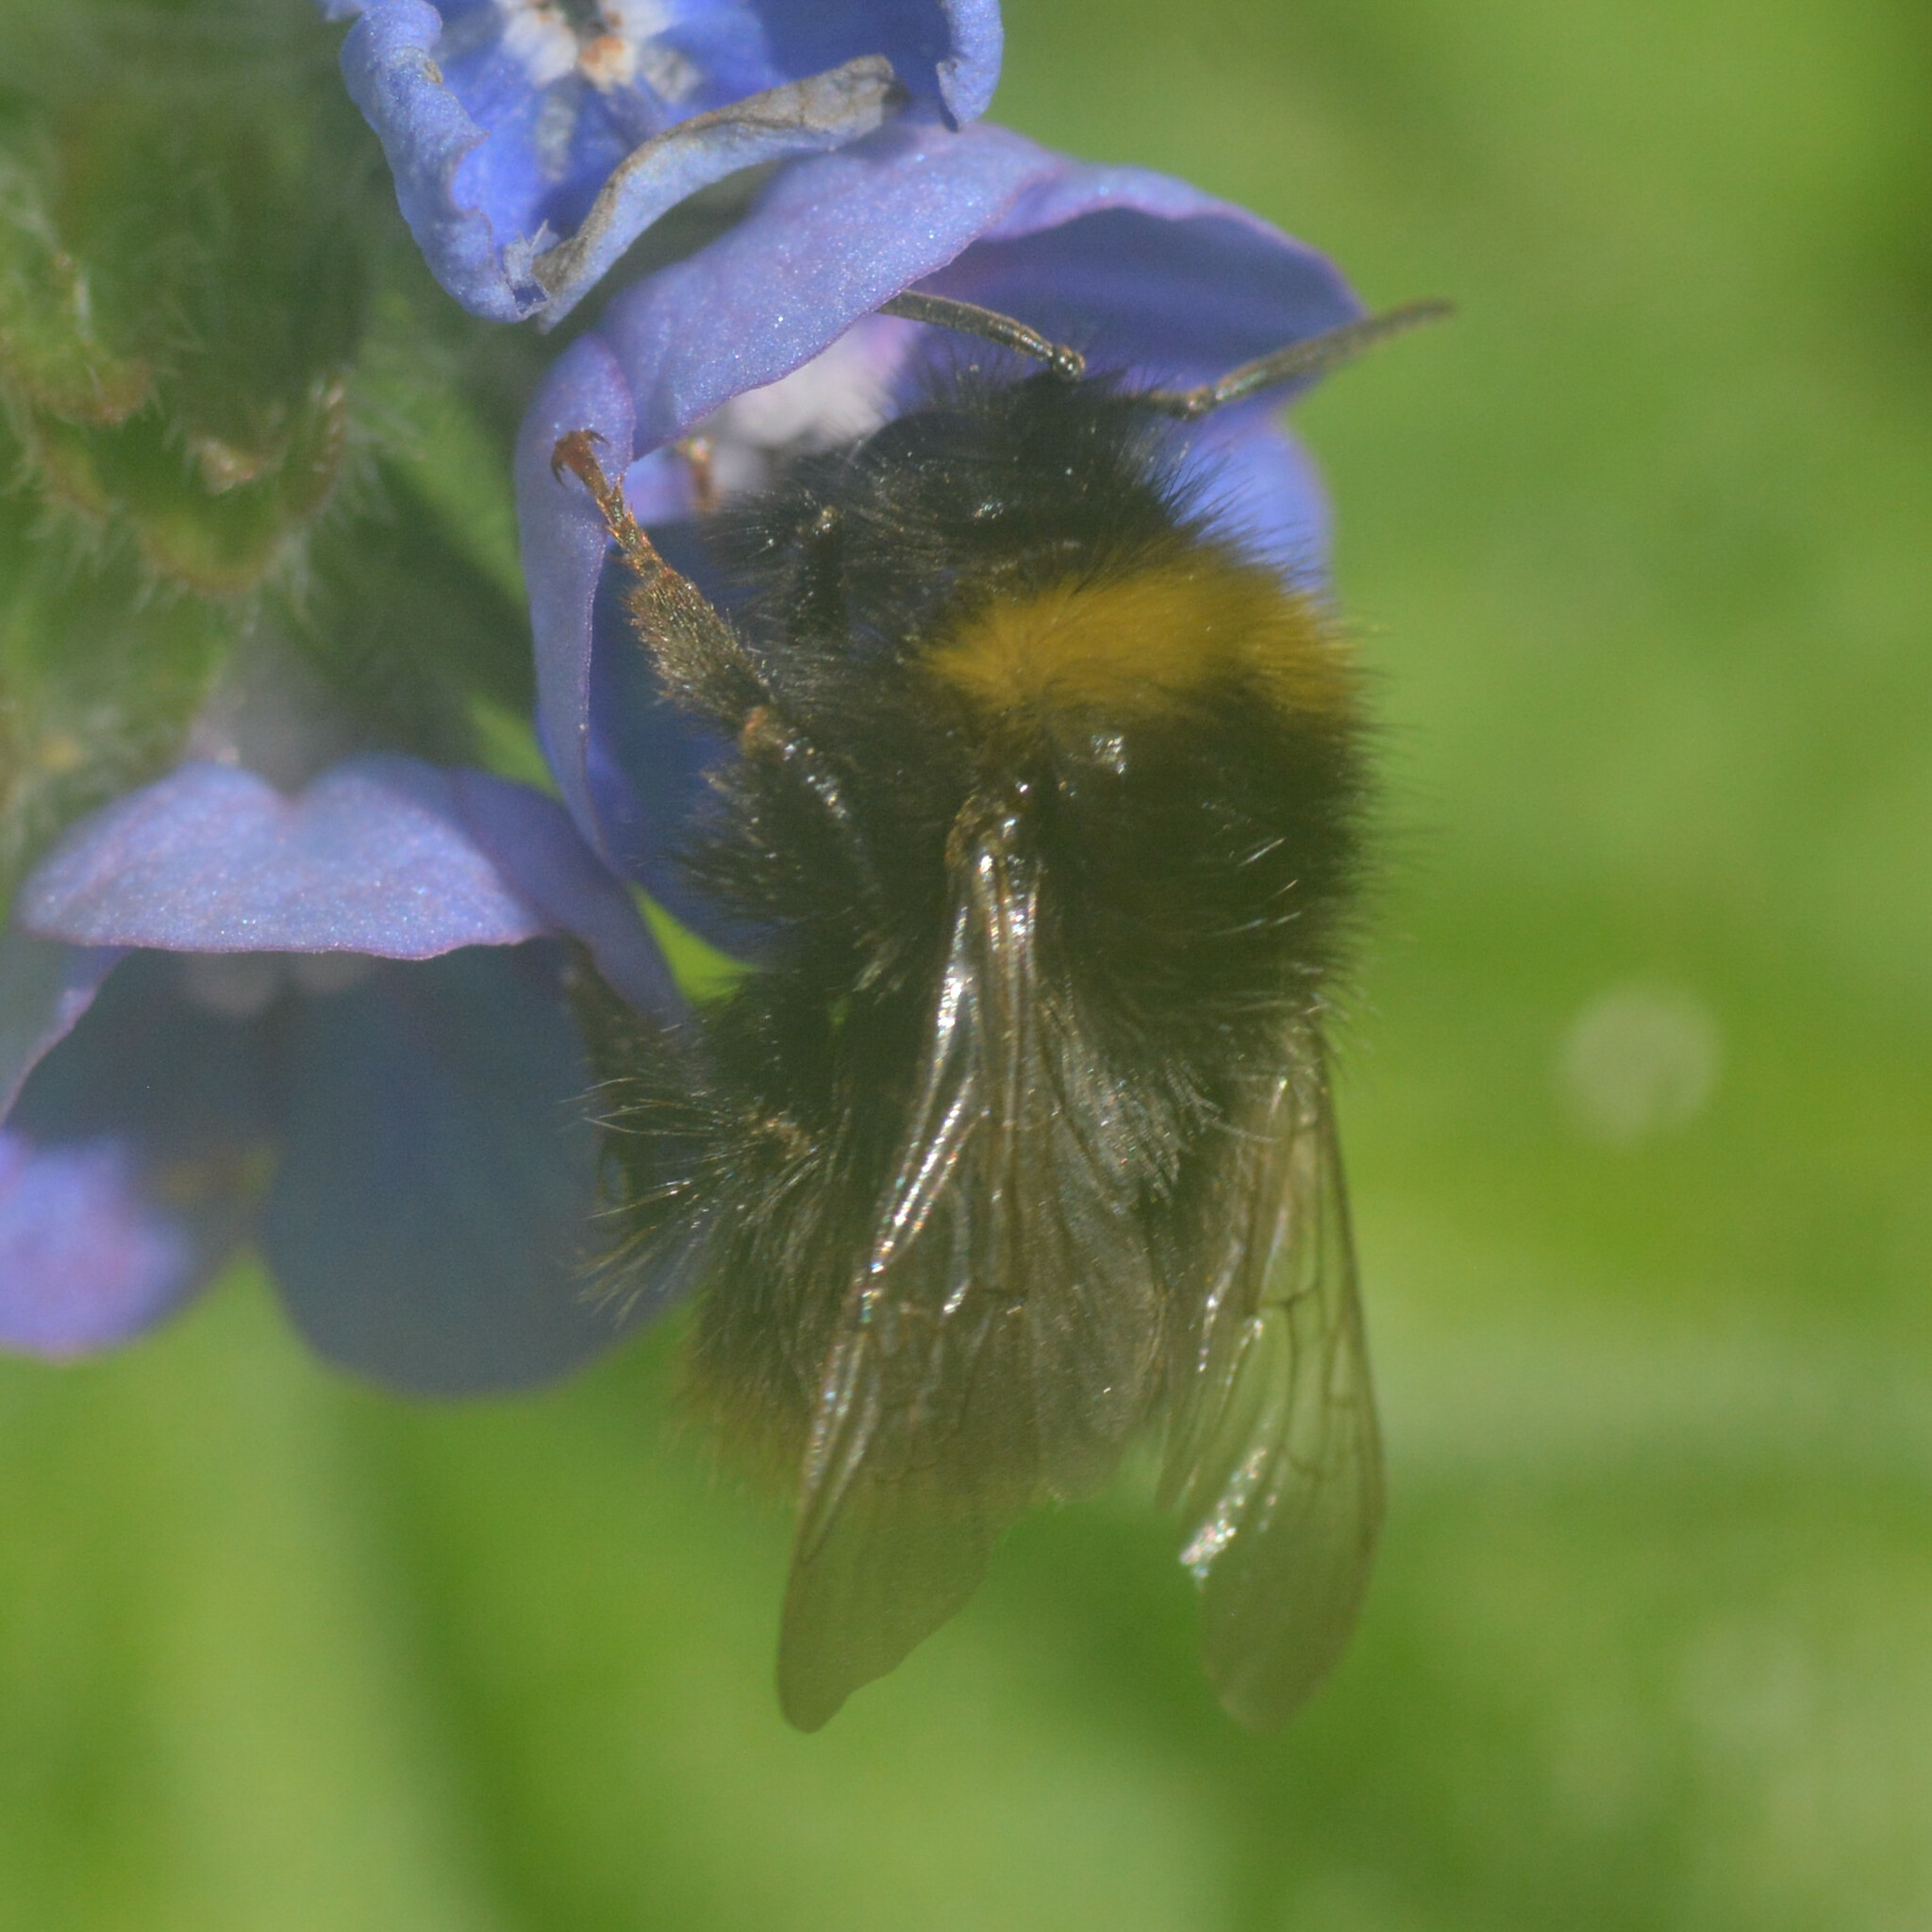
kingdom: Animalia
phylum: Arthropoda
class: Insecta
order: Hymenoptera
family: Apidae
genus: Bombus
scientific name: Bombus pratorum
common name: Early humble-bee
